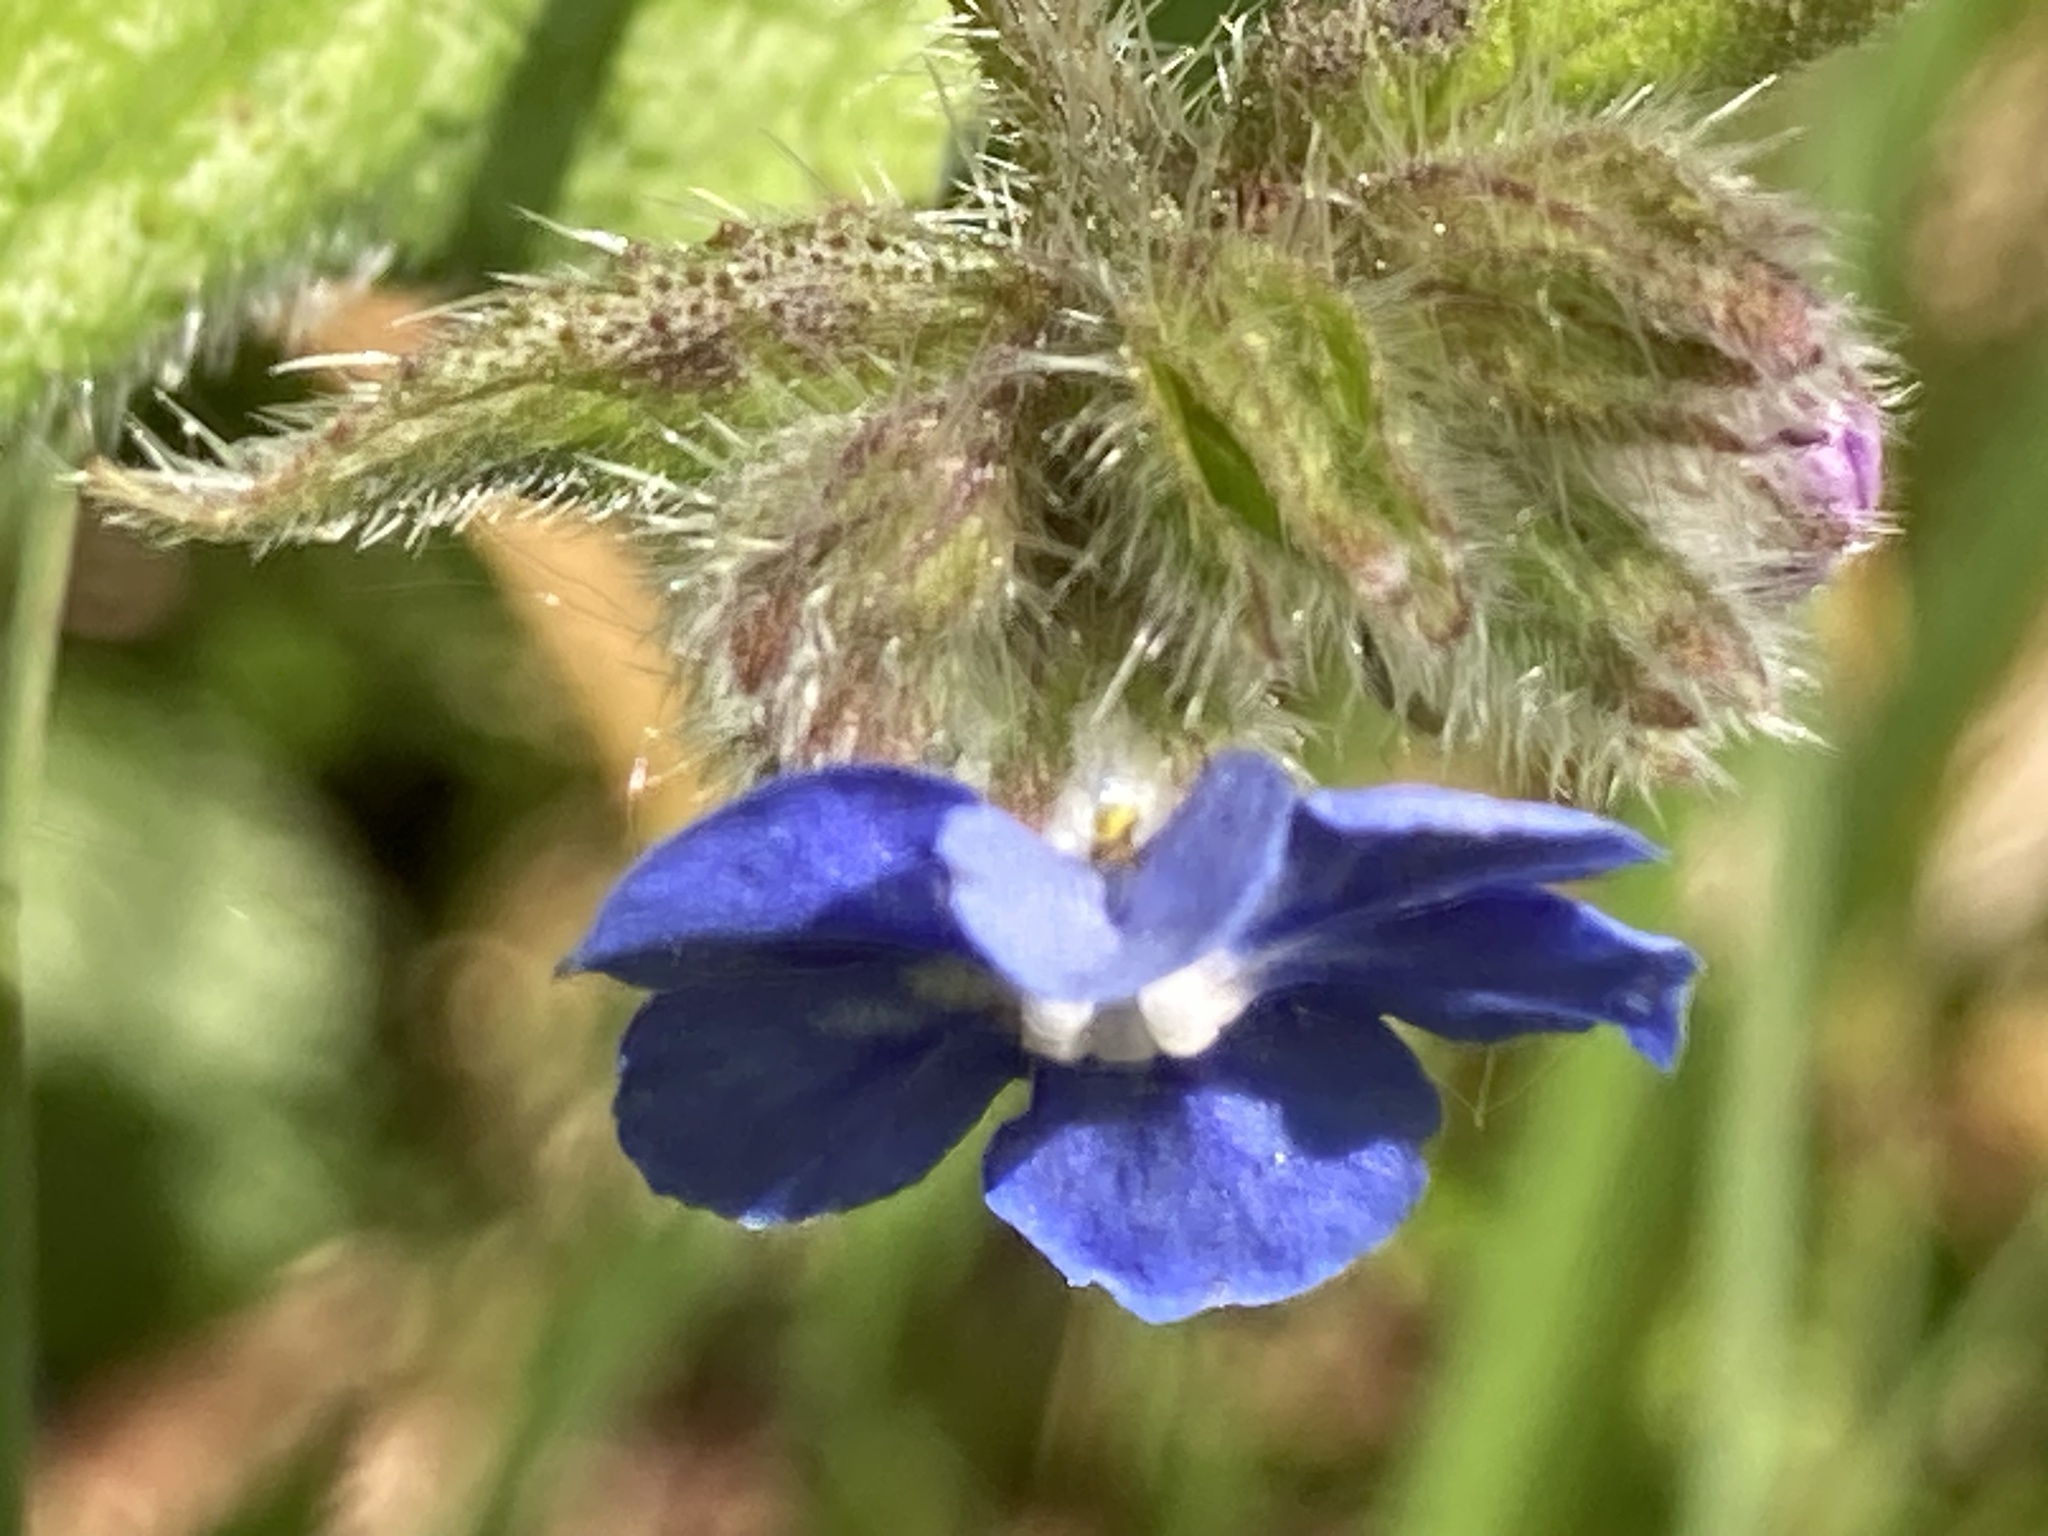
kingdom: Plantae
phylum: Tracheophyta
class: Magnoliopsida
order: Boraginales
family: Boraginaceae
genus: Pentaglottis
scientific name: Pentaglottis sempervirens
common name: Green alkanet
